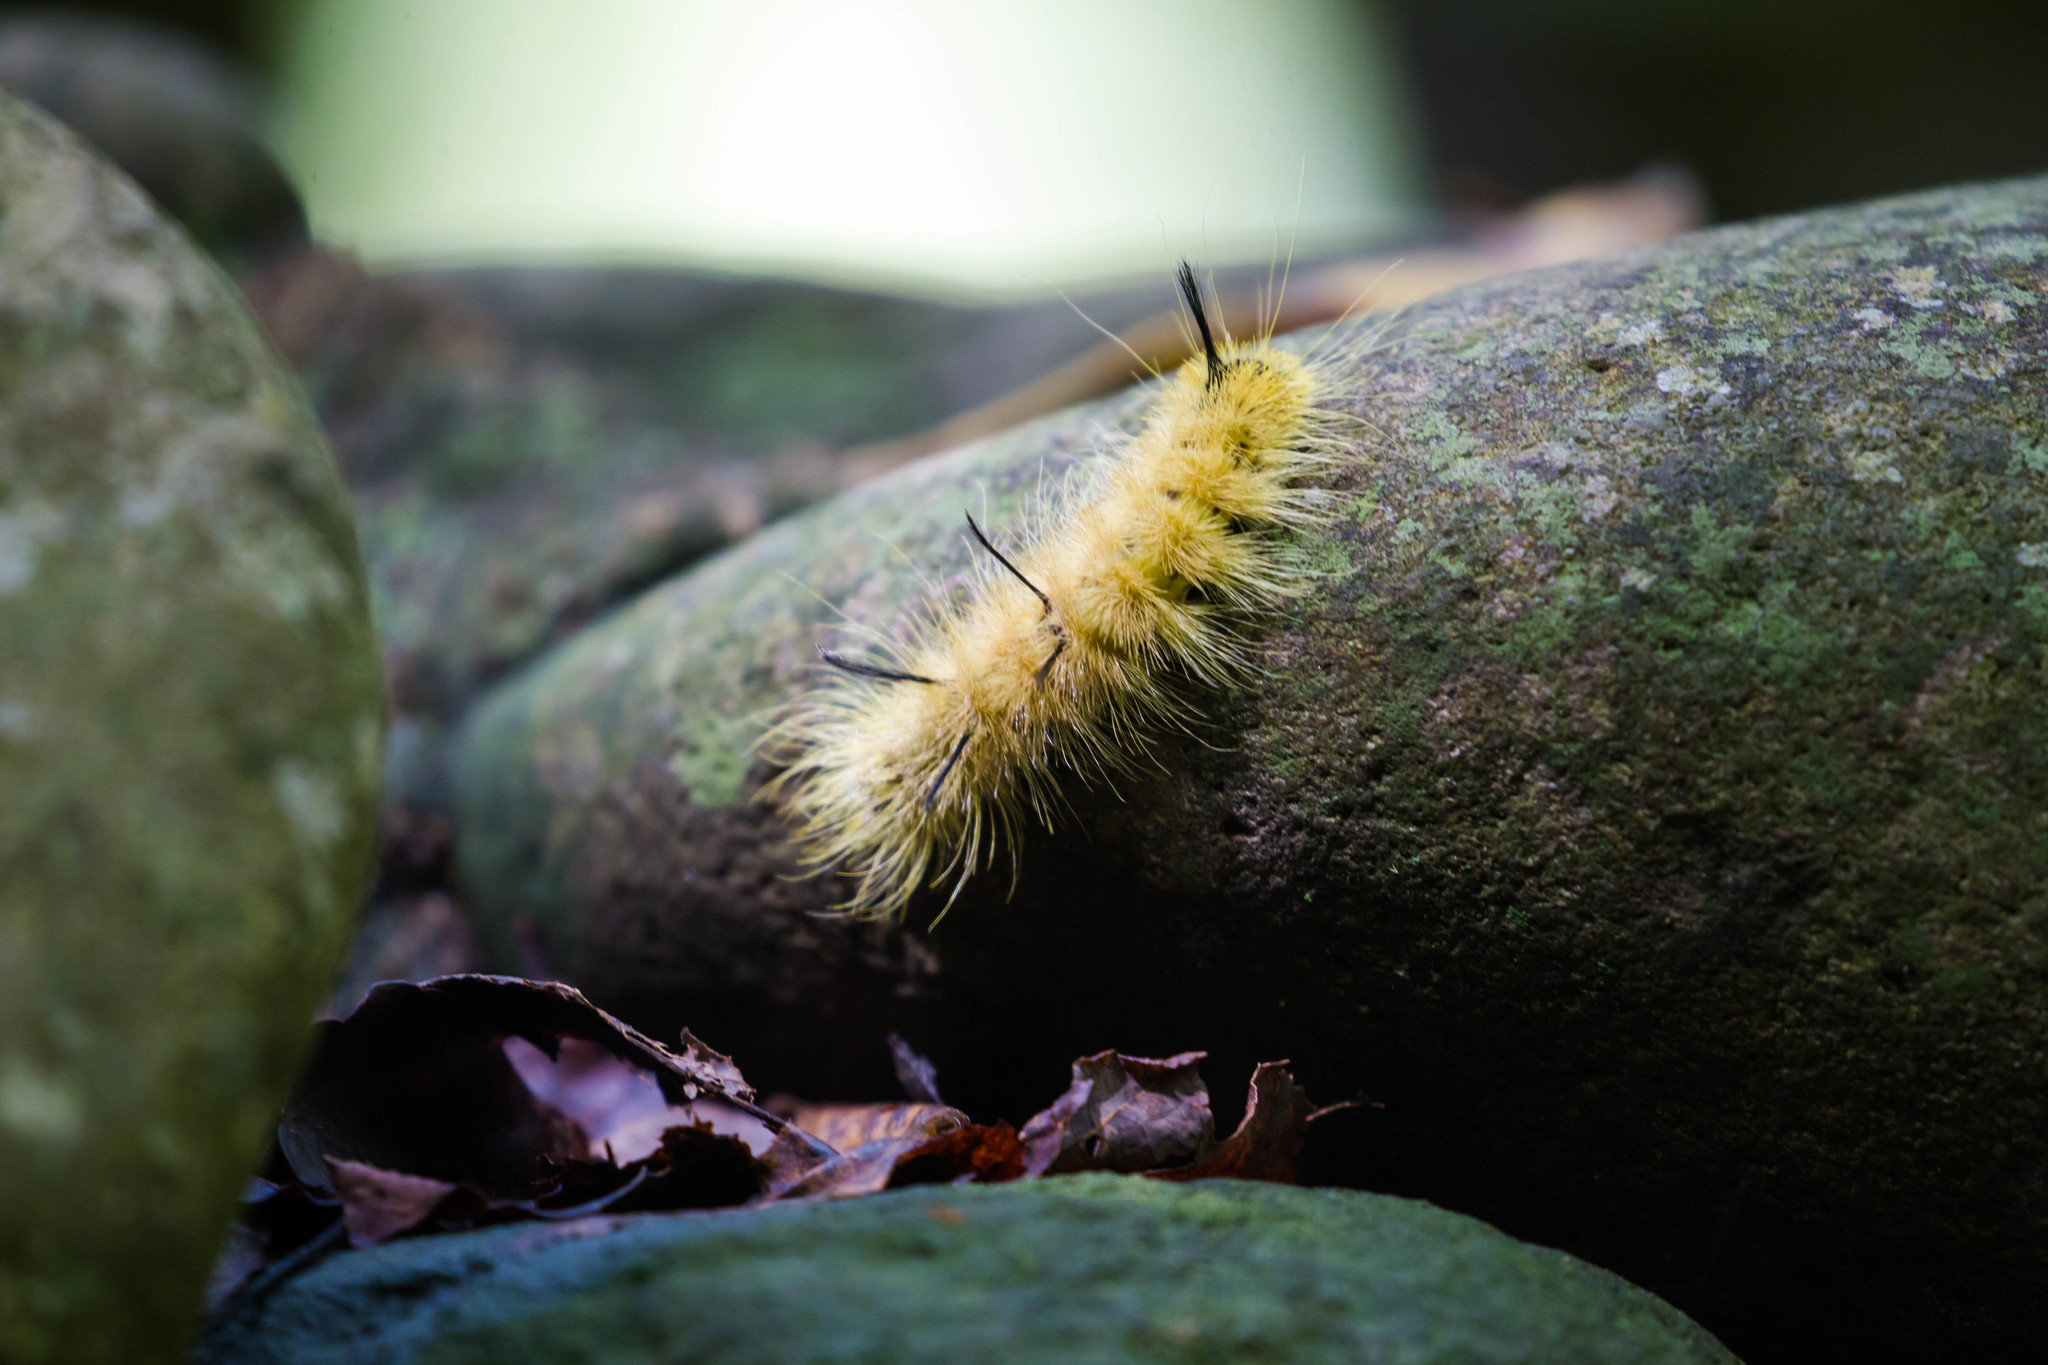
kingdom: Animalia
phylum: Arthropoda
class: Insecta
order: Lepidoptera
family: Noctuidae
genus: Acronicta
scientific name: Acronicta americana
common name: American dagger
